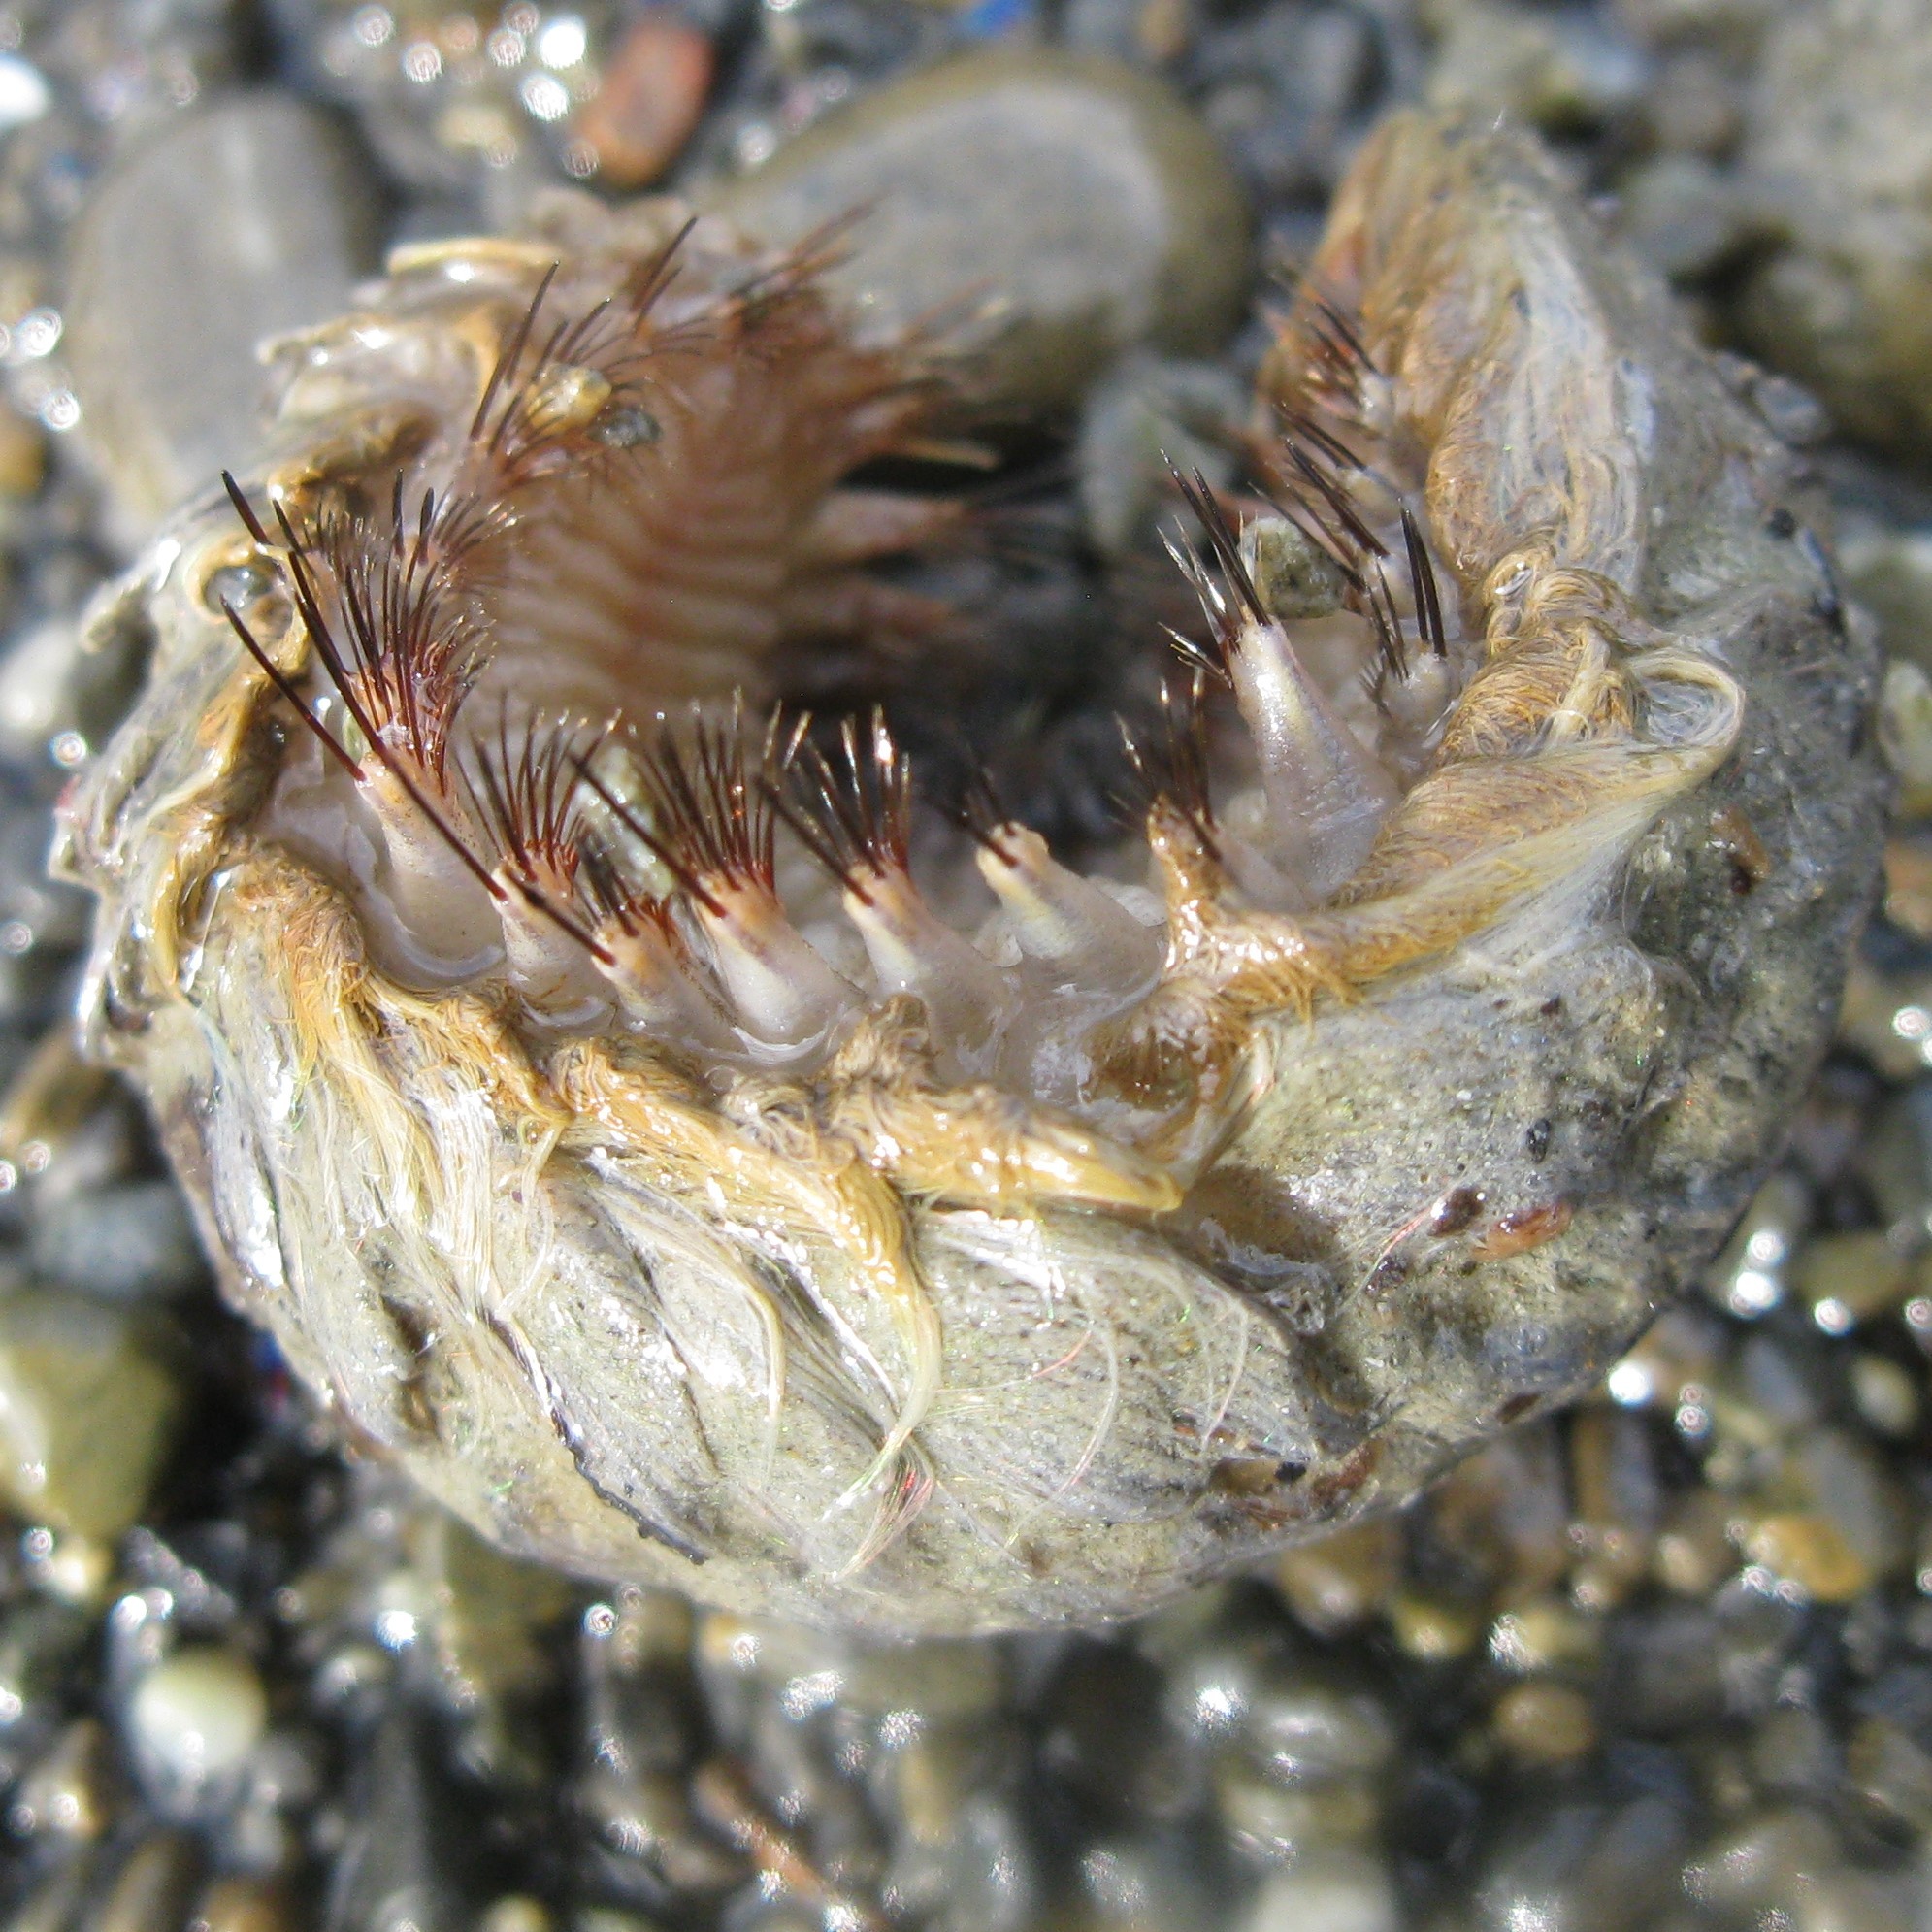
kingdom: Animalia
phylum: Annelida
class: Polychaeta
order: Phyllodocida
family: Aphroditidae
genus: Aphrodita
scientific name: Aphrodita talpa
